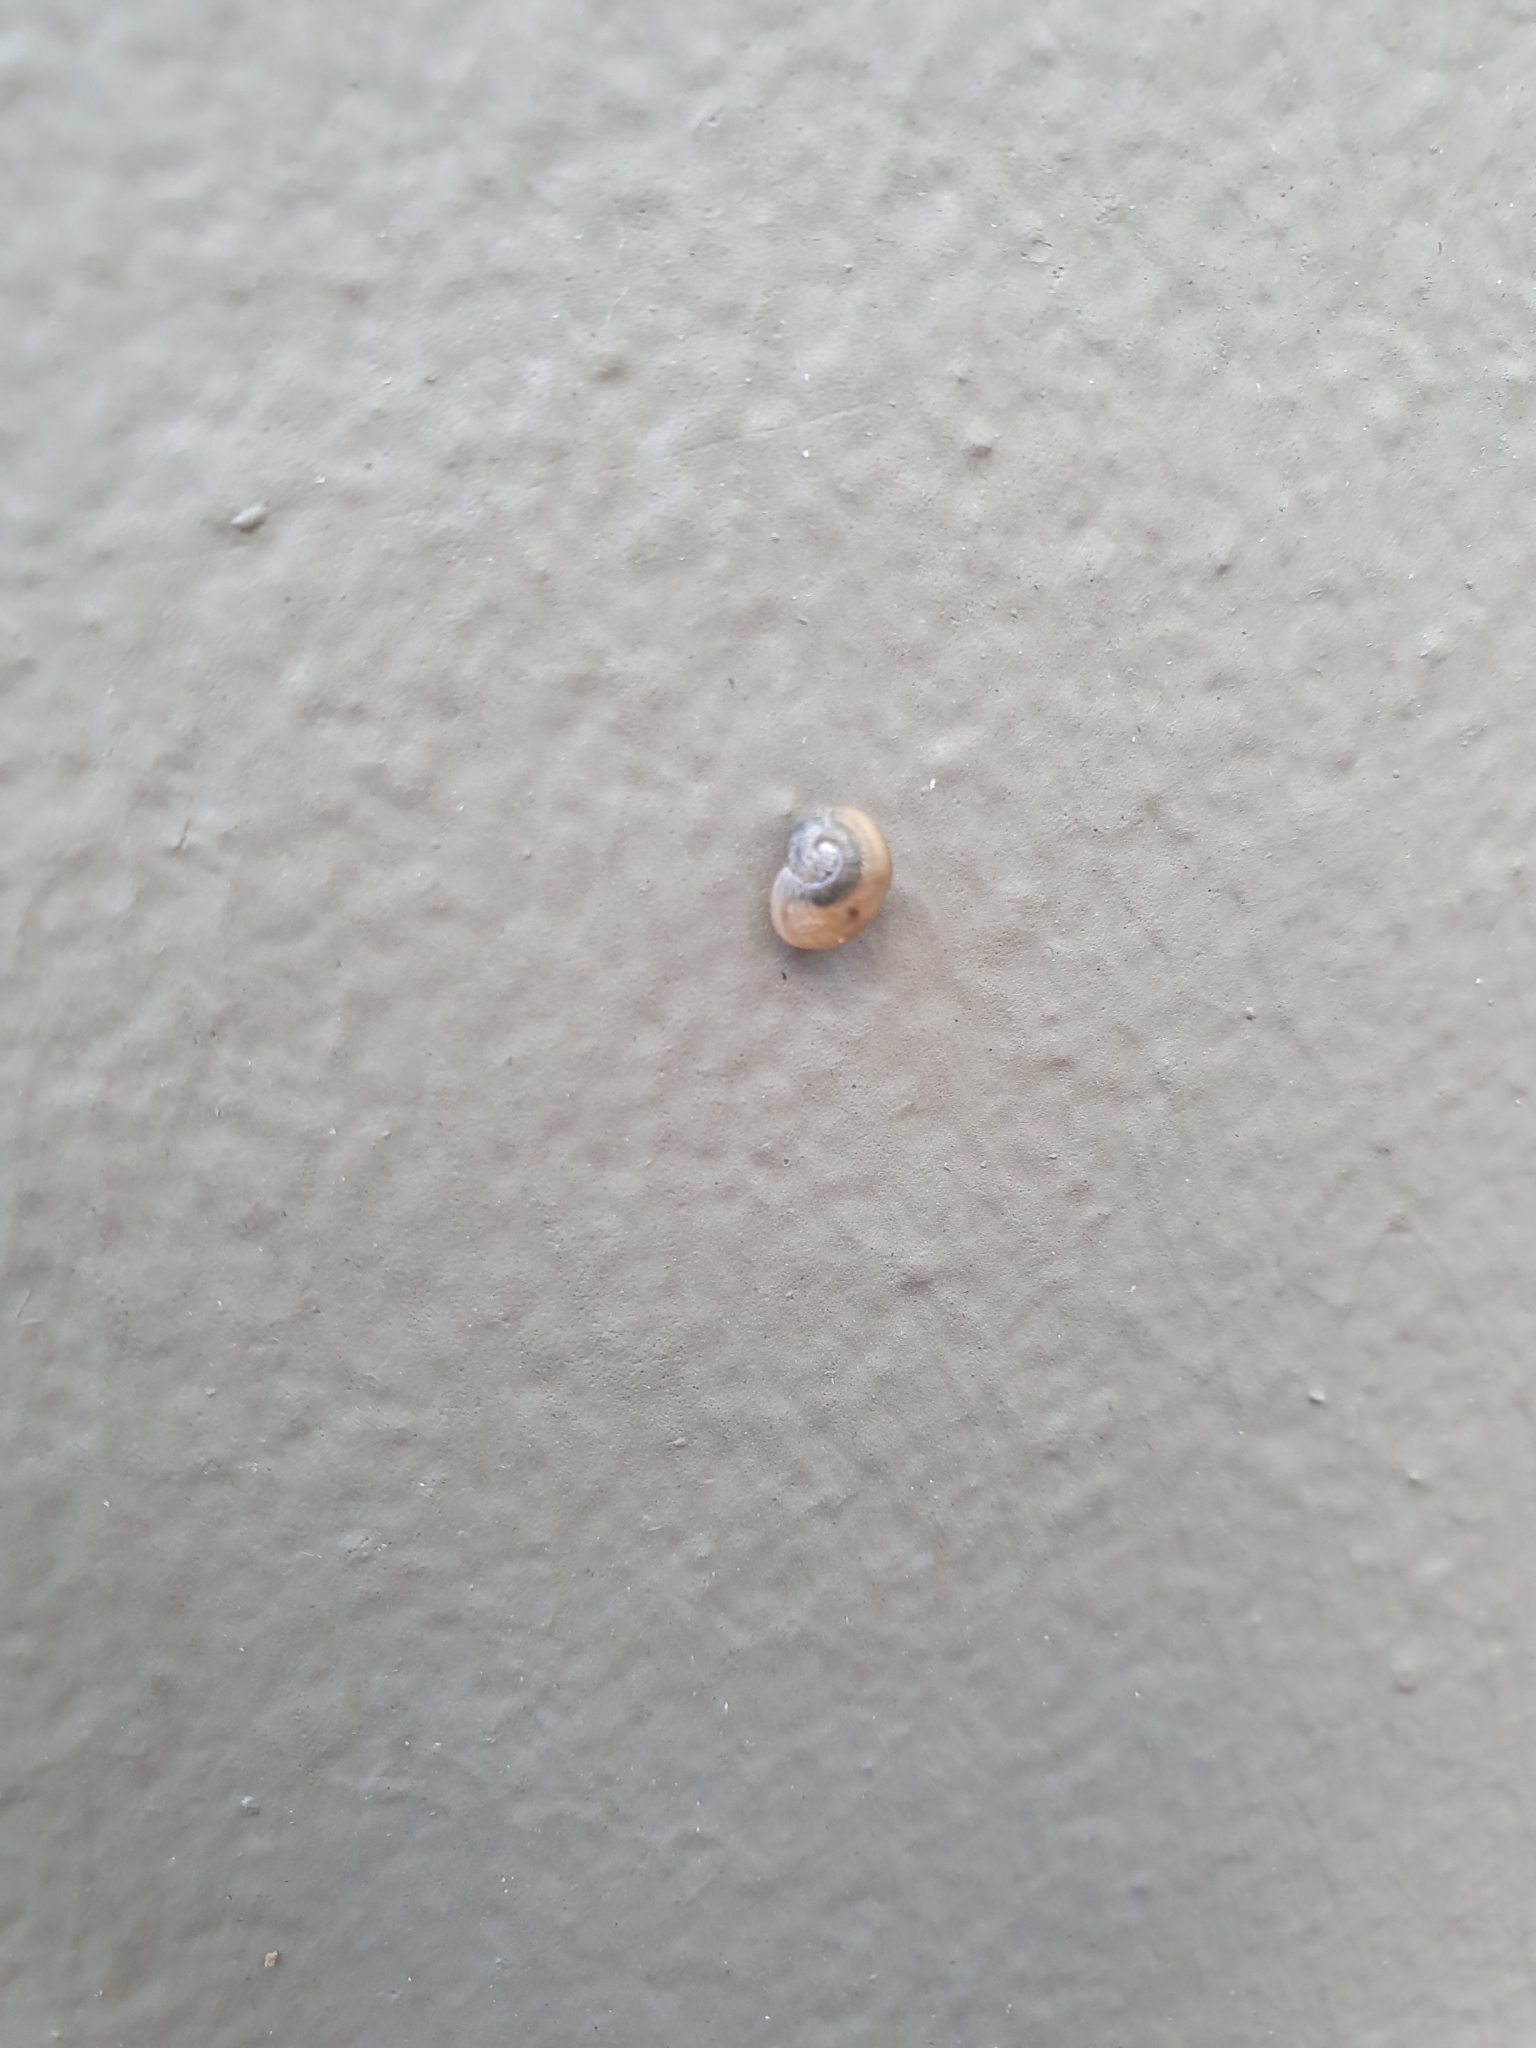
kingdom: Animalia
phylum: Mollusca
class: Gastropoda
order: Stylommatophora
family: Helicidae
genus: Cornu
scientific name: Cornu aspersum
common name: Brown garden snail
